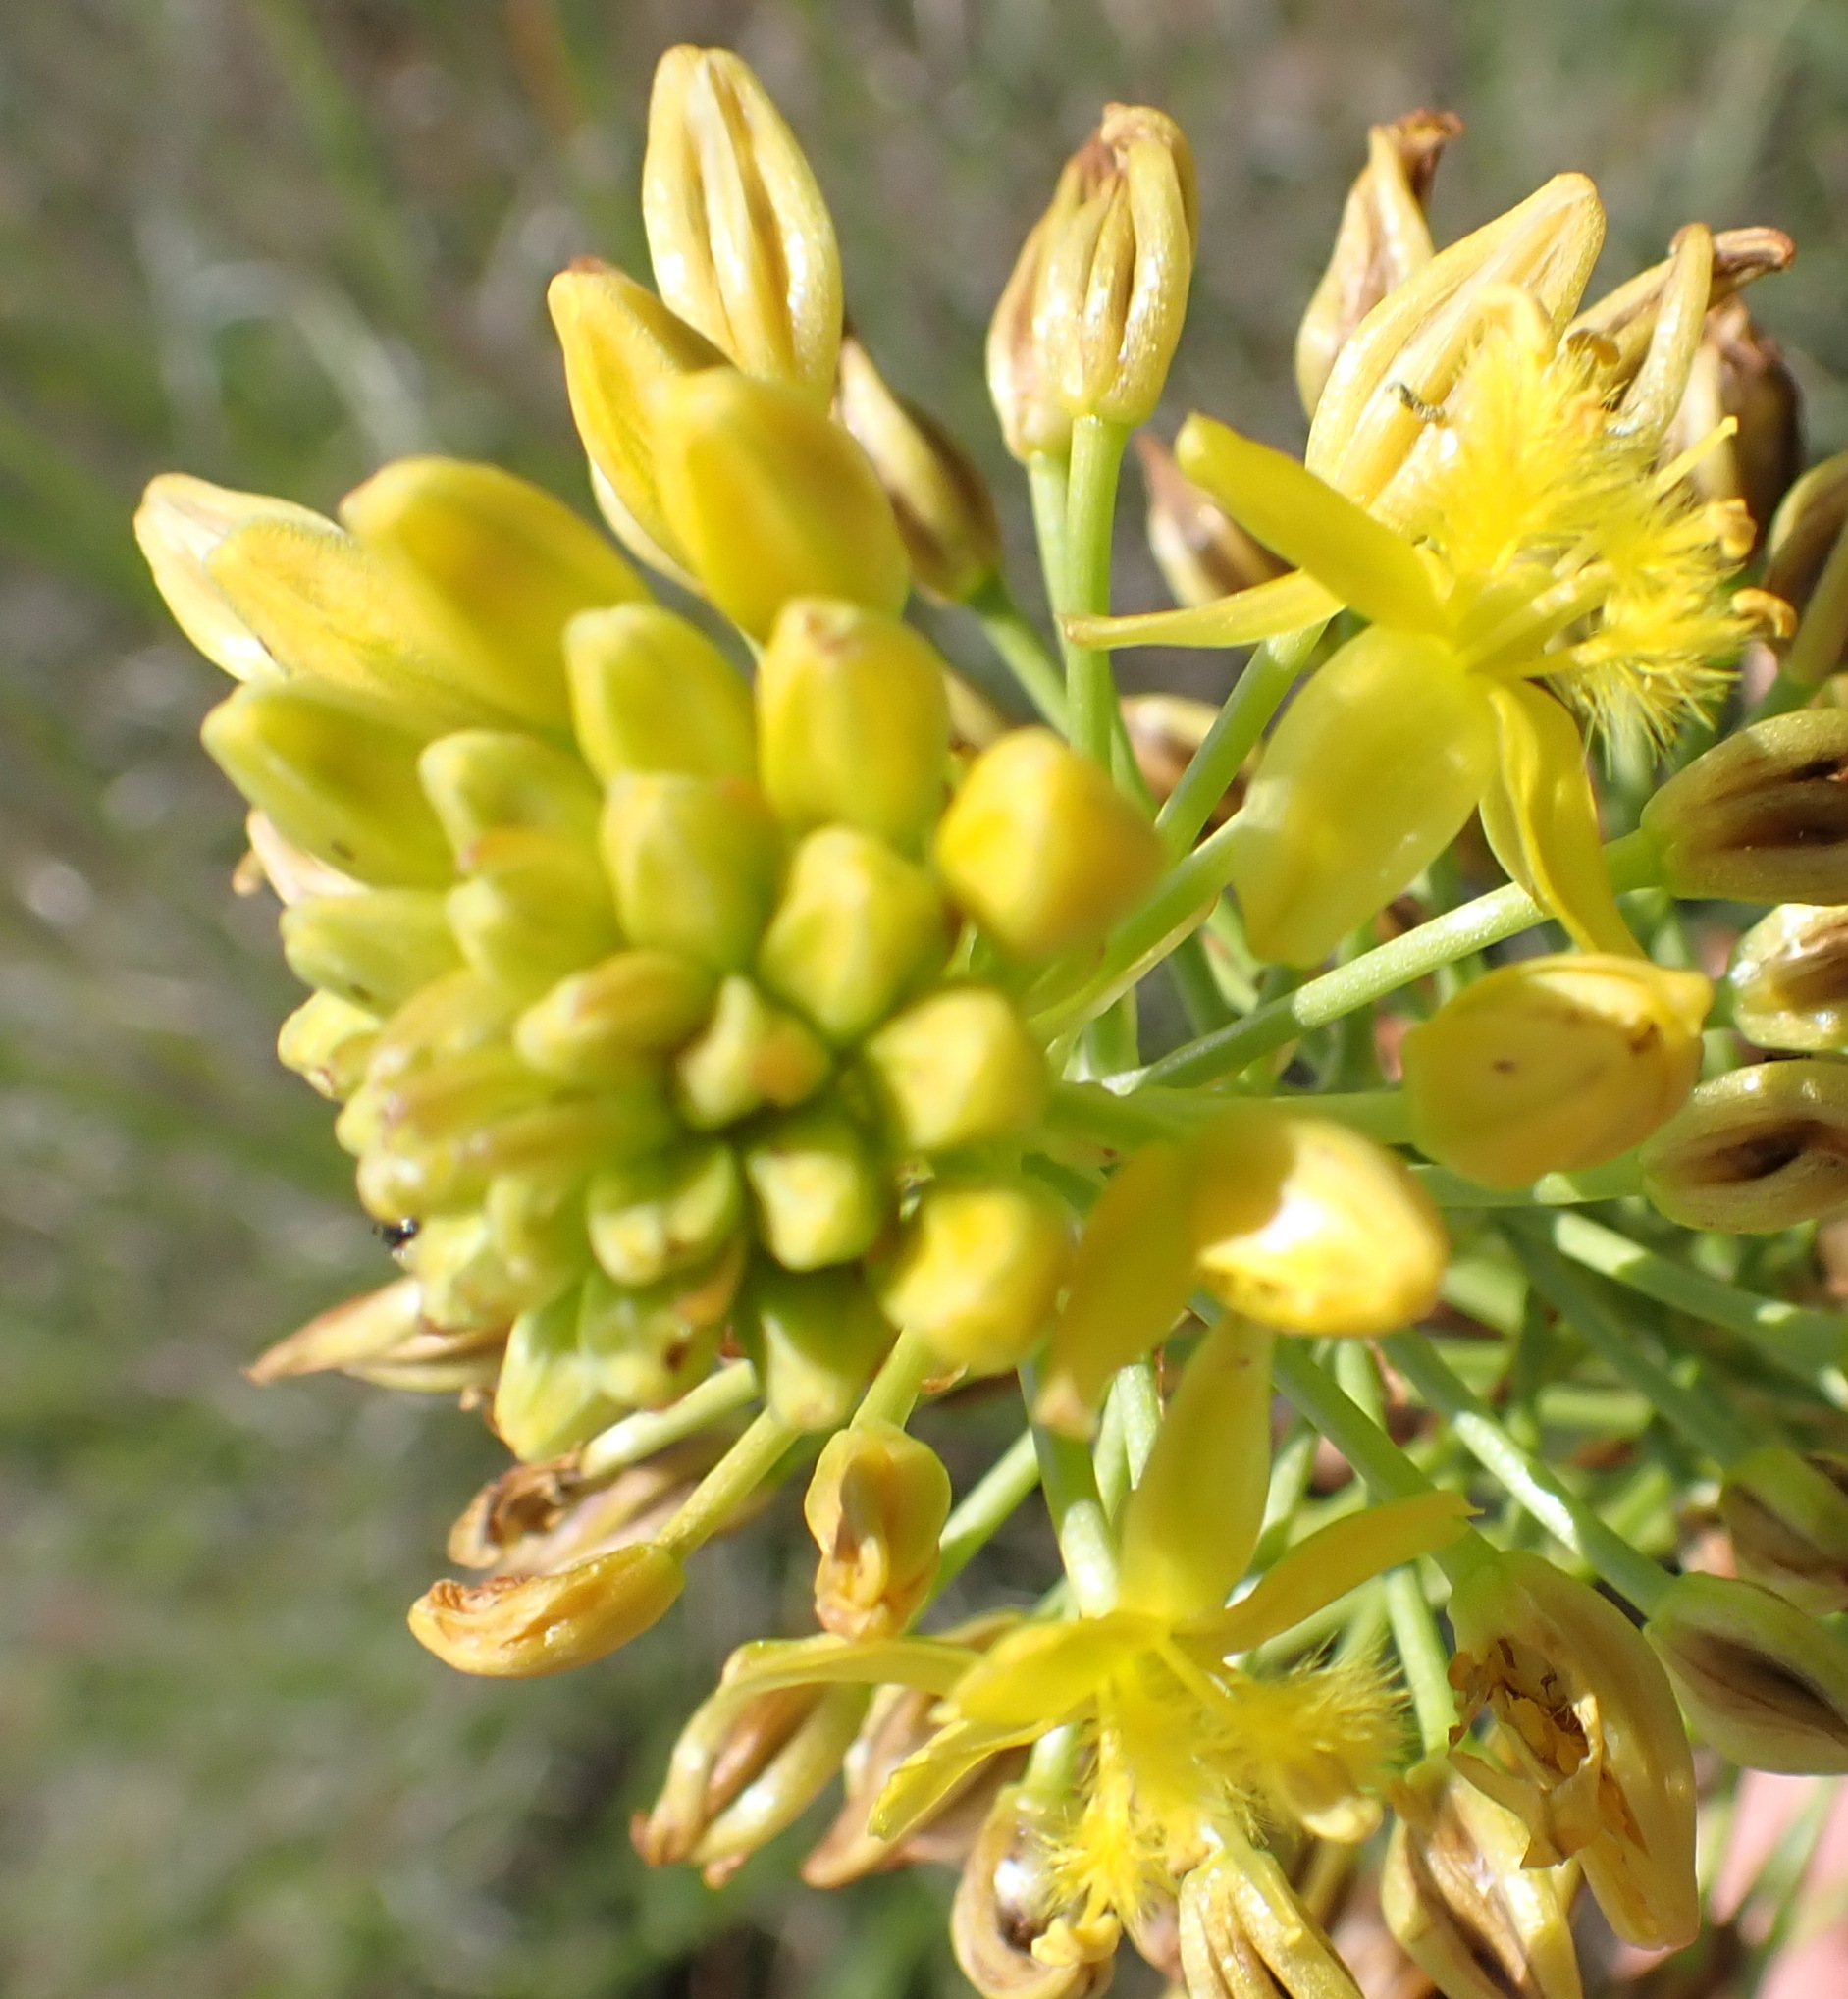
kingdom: Plantae
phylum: Tracheophyta
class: Liliopsida
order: Asparagales
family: Asphodelaceae
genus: Bulbine
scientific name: Bulbine abyssinica
